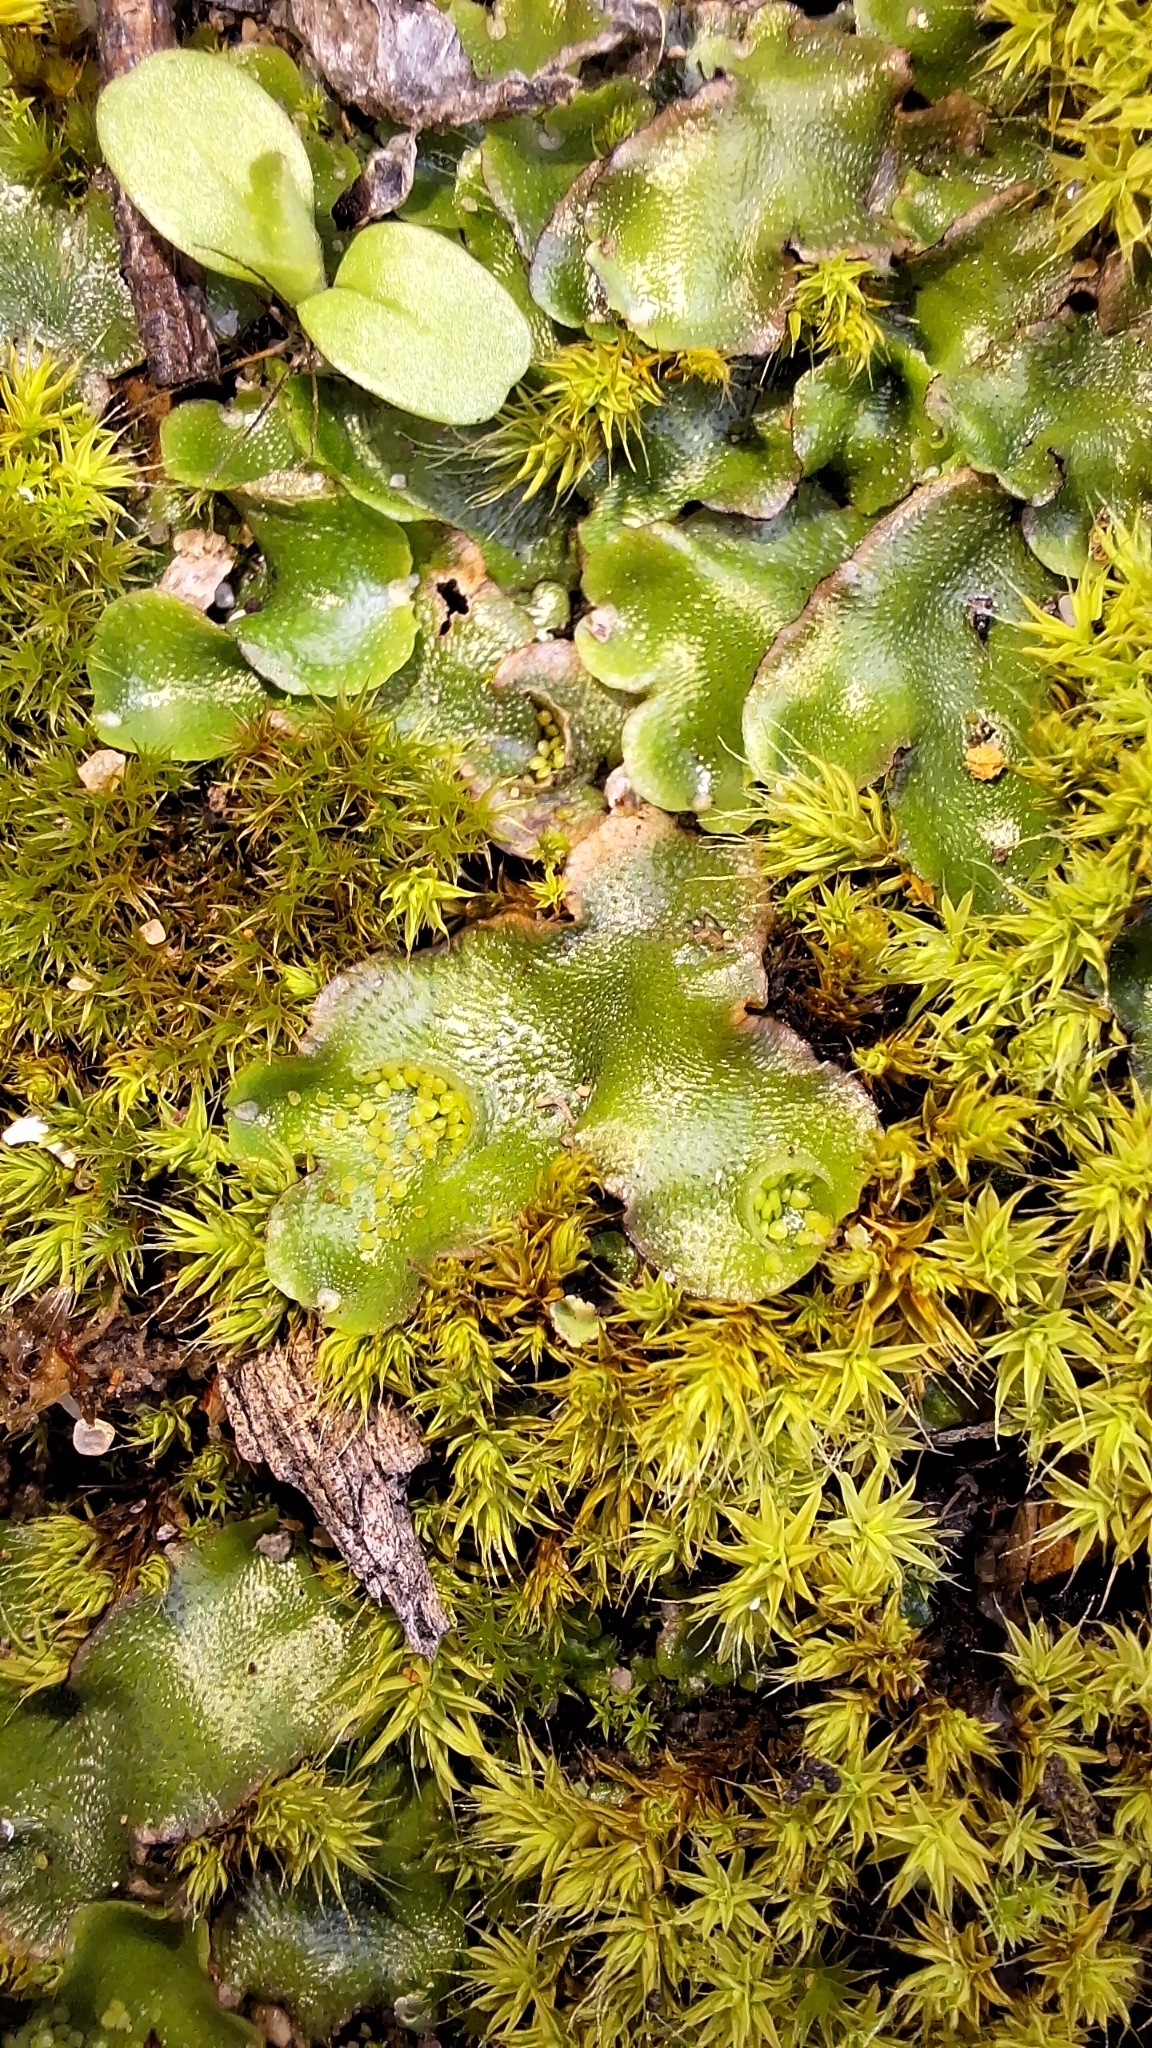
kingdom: Plantae
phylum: Marchantiophyta
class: Marchantiopsida
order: Lunulariales
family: Lunulariaceae
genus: Lunularia
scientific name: Lunularia cruciata
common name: Crescent-cup liverwort
